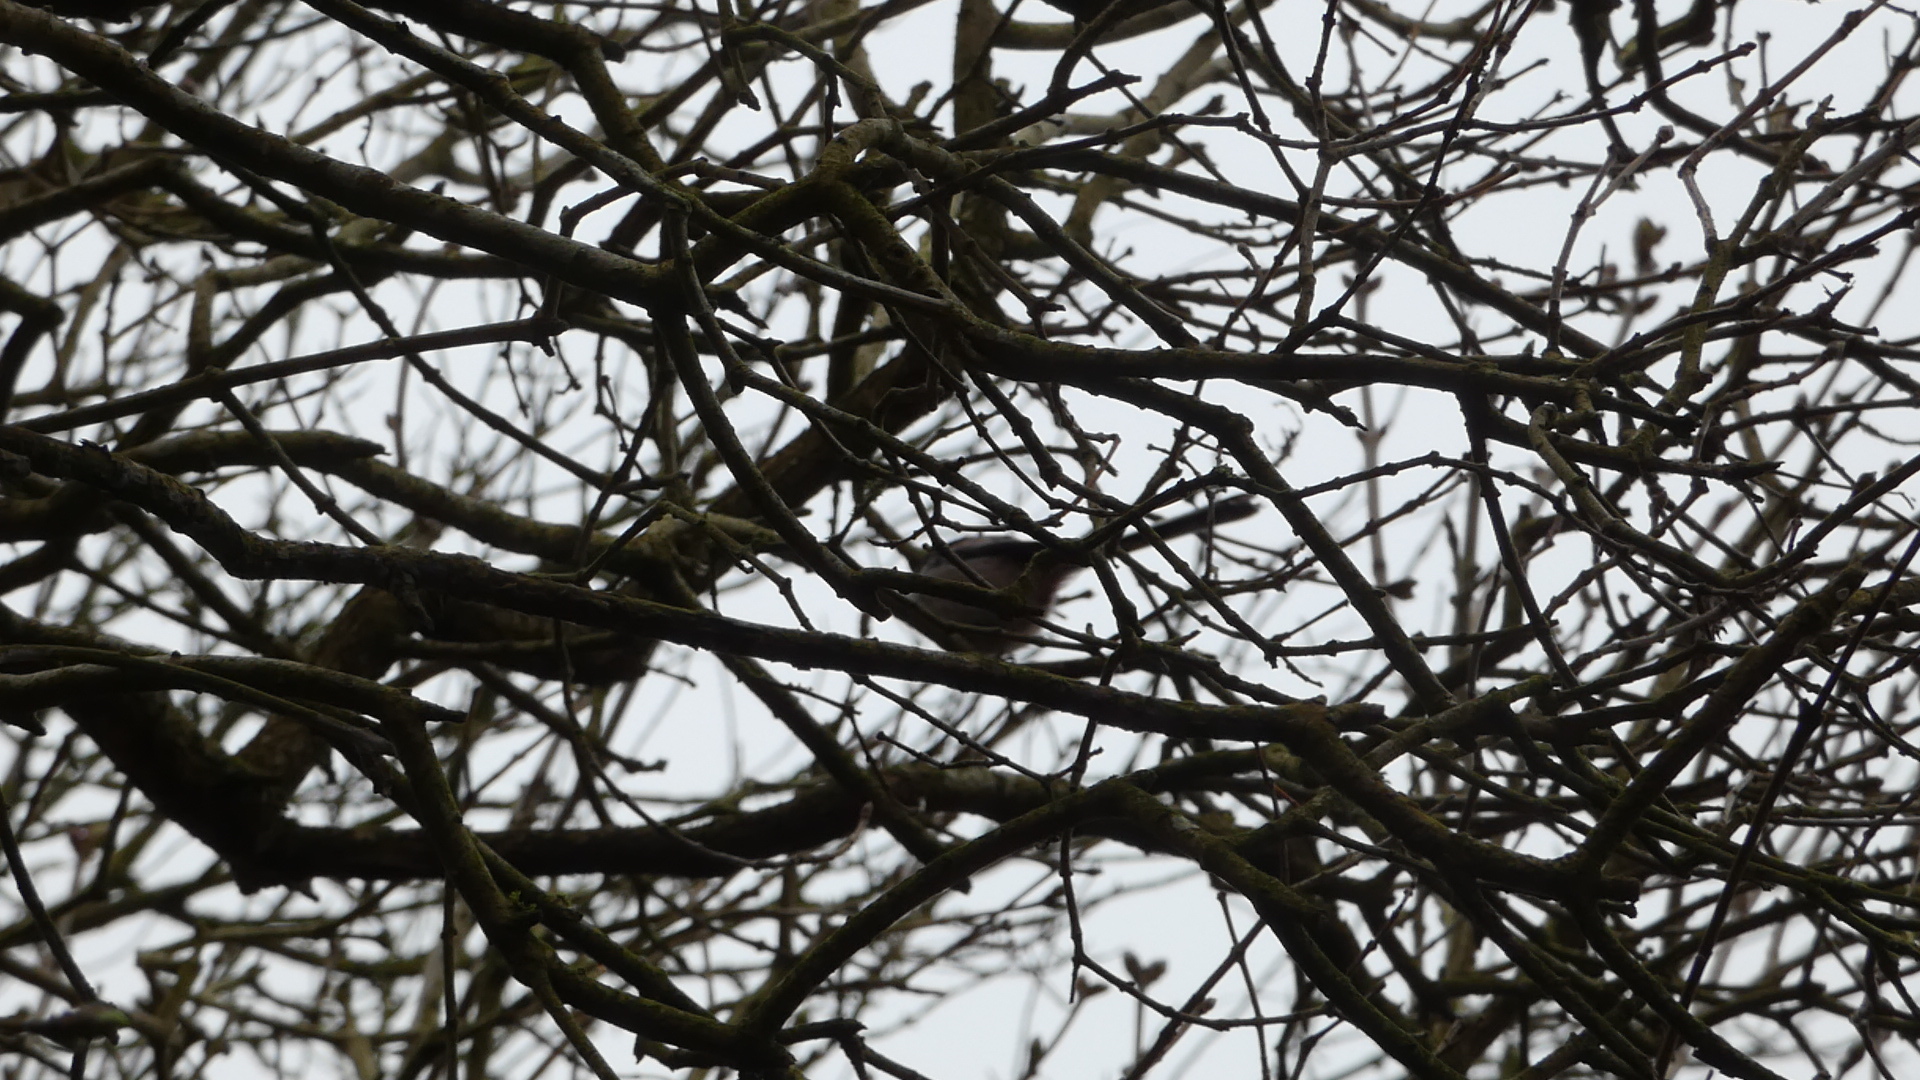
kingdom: Animalia
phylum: Chordata
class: Aves
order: Passeriformes
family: Aegithalidae
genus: Aegithalos
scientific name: Aegithalos caudatus
